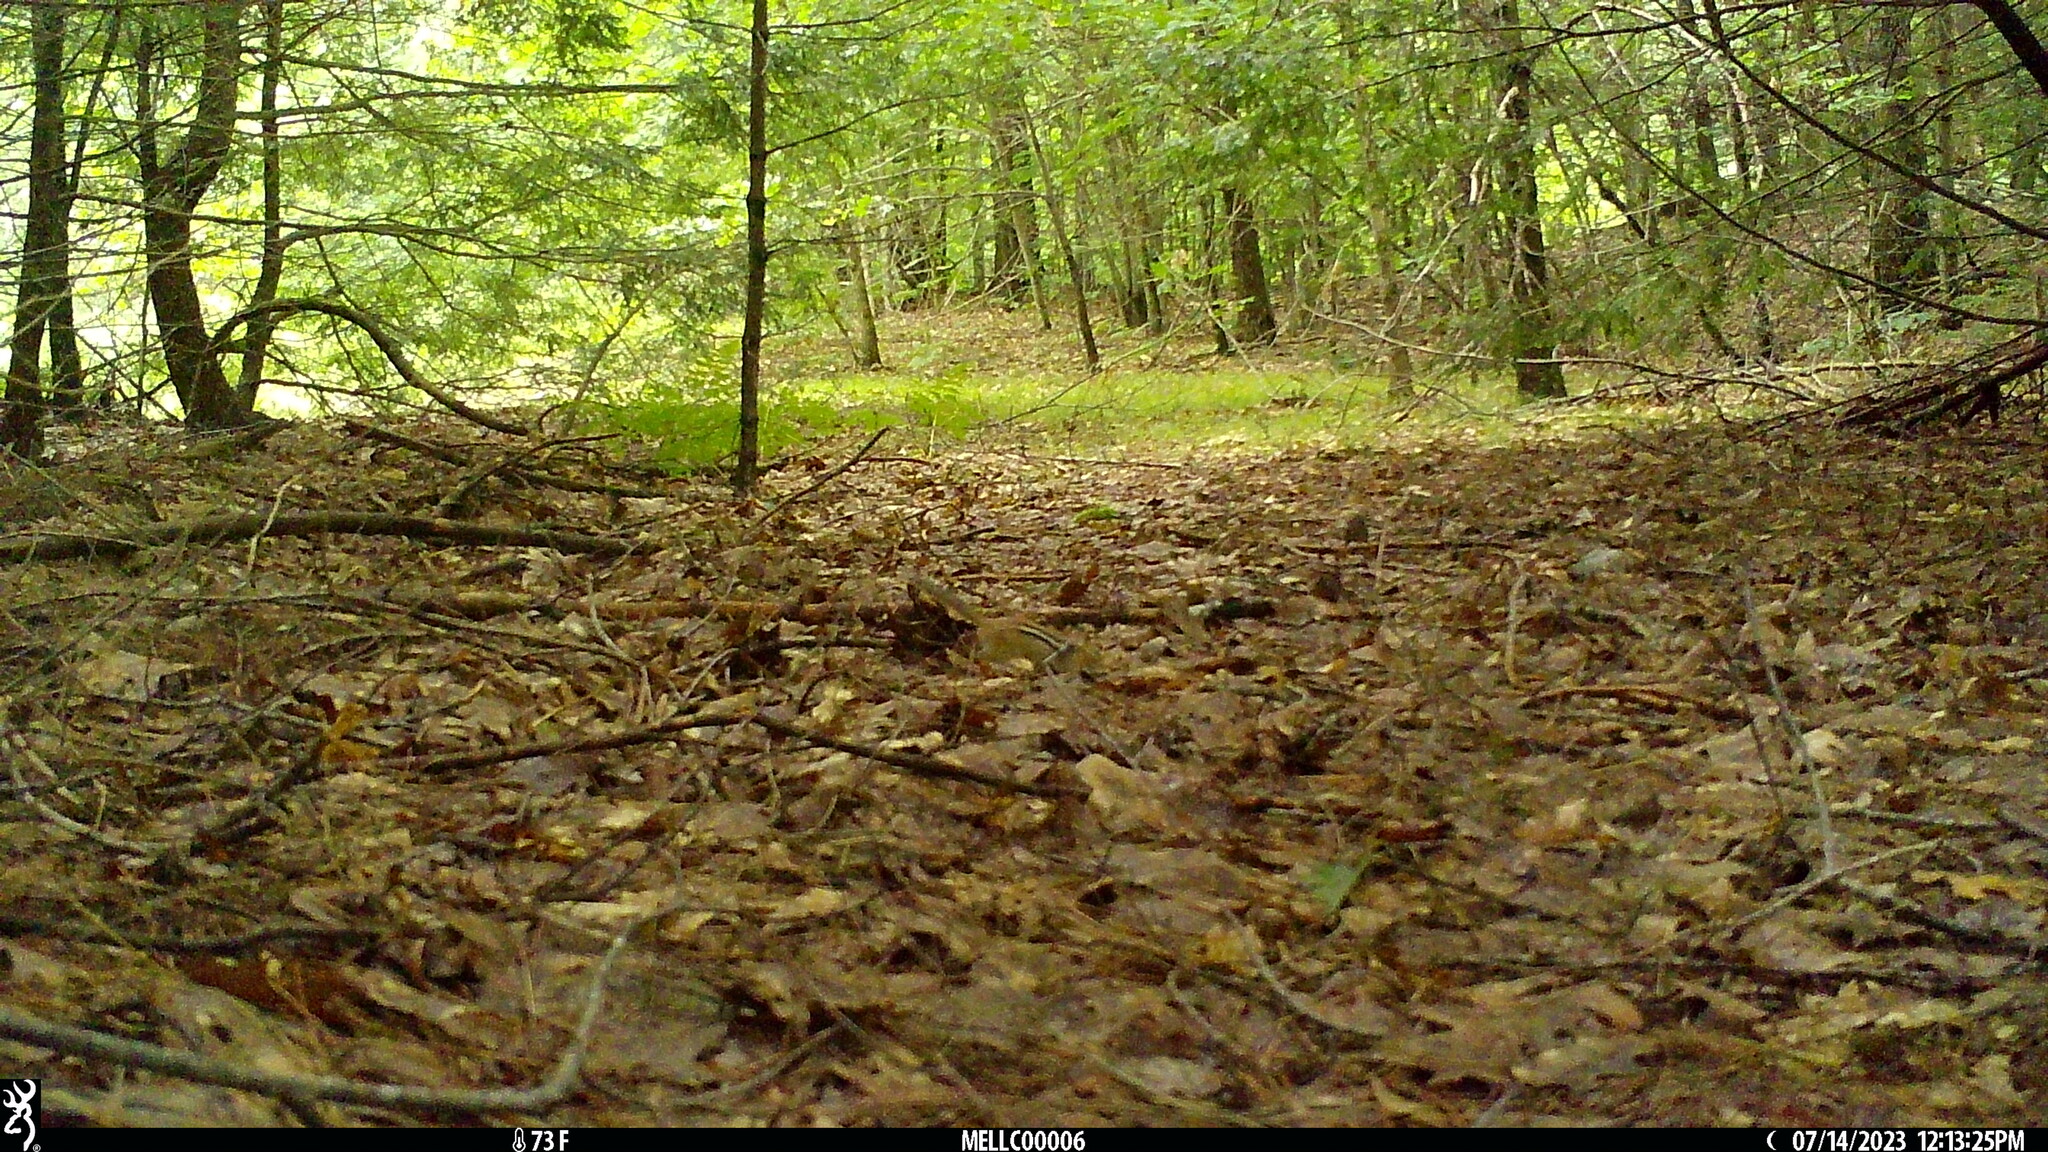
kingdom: Animalia
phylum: Chordata
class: Mammalia
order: Rodentia
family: Sciuridae
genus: Tamias
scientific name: Tamias striatus
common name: Eastern chipmunk
